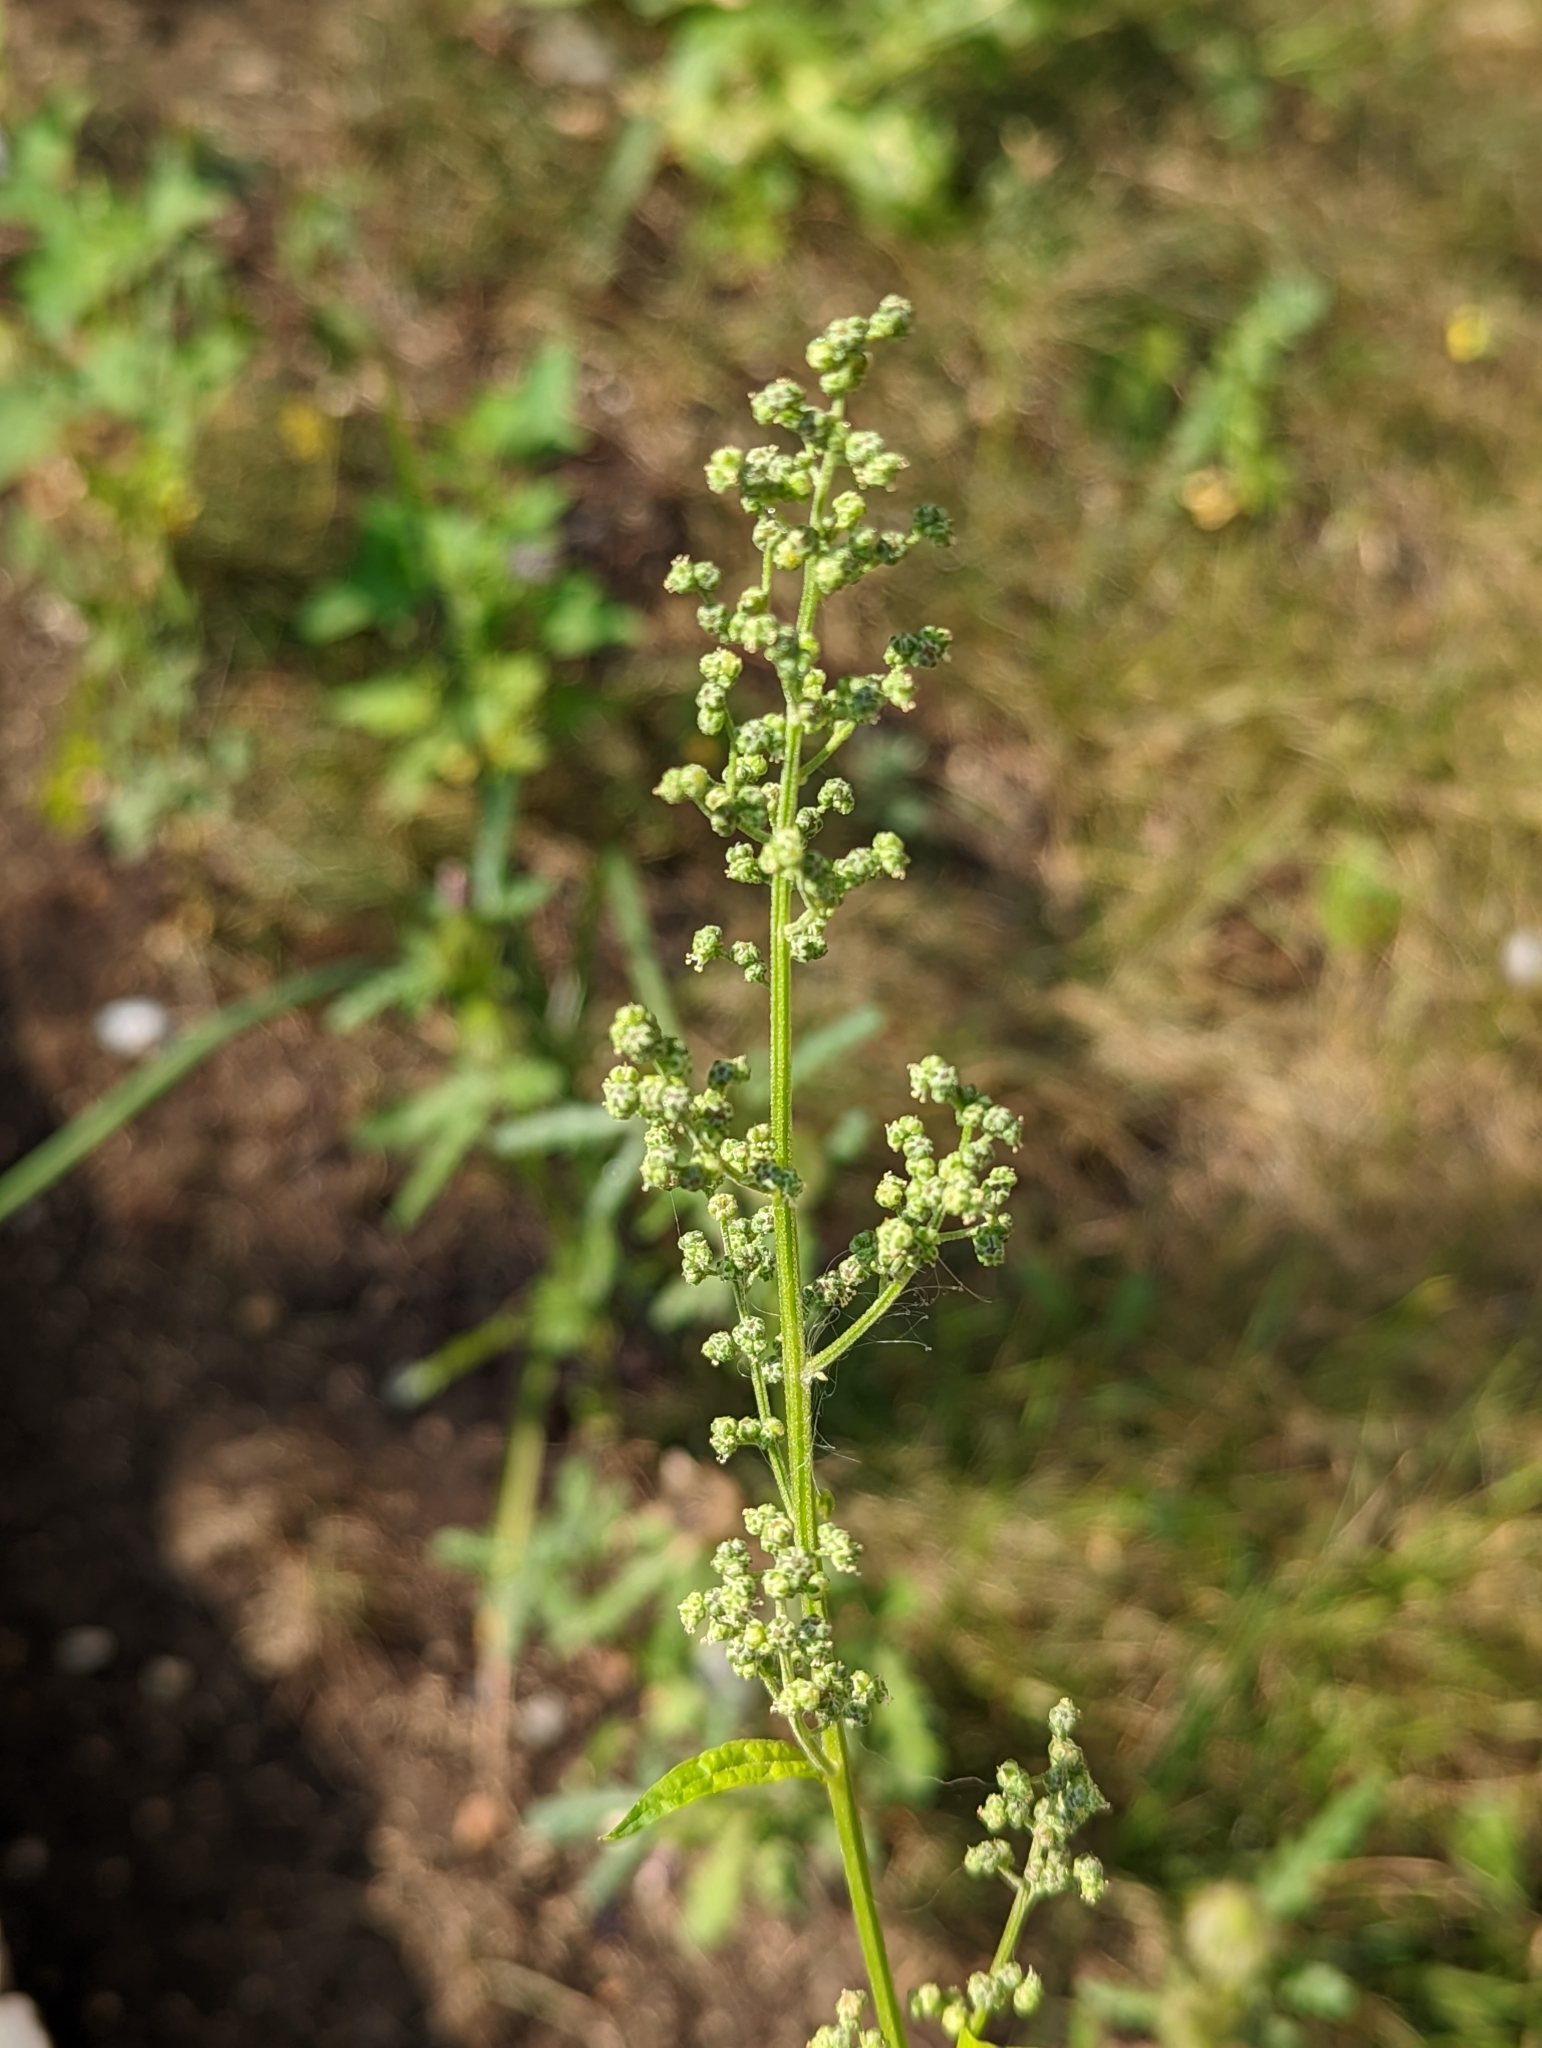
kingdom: Plantae
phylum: Tracheophyta
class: Magnoliopsida
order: Caryophyllales
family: Amaranthaceae
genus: Chenopodiastrum
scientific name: Chenopodiastrum hybridum
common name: Mapleleaf goosefoot
